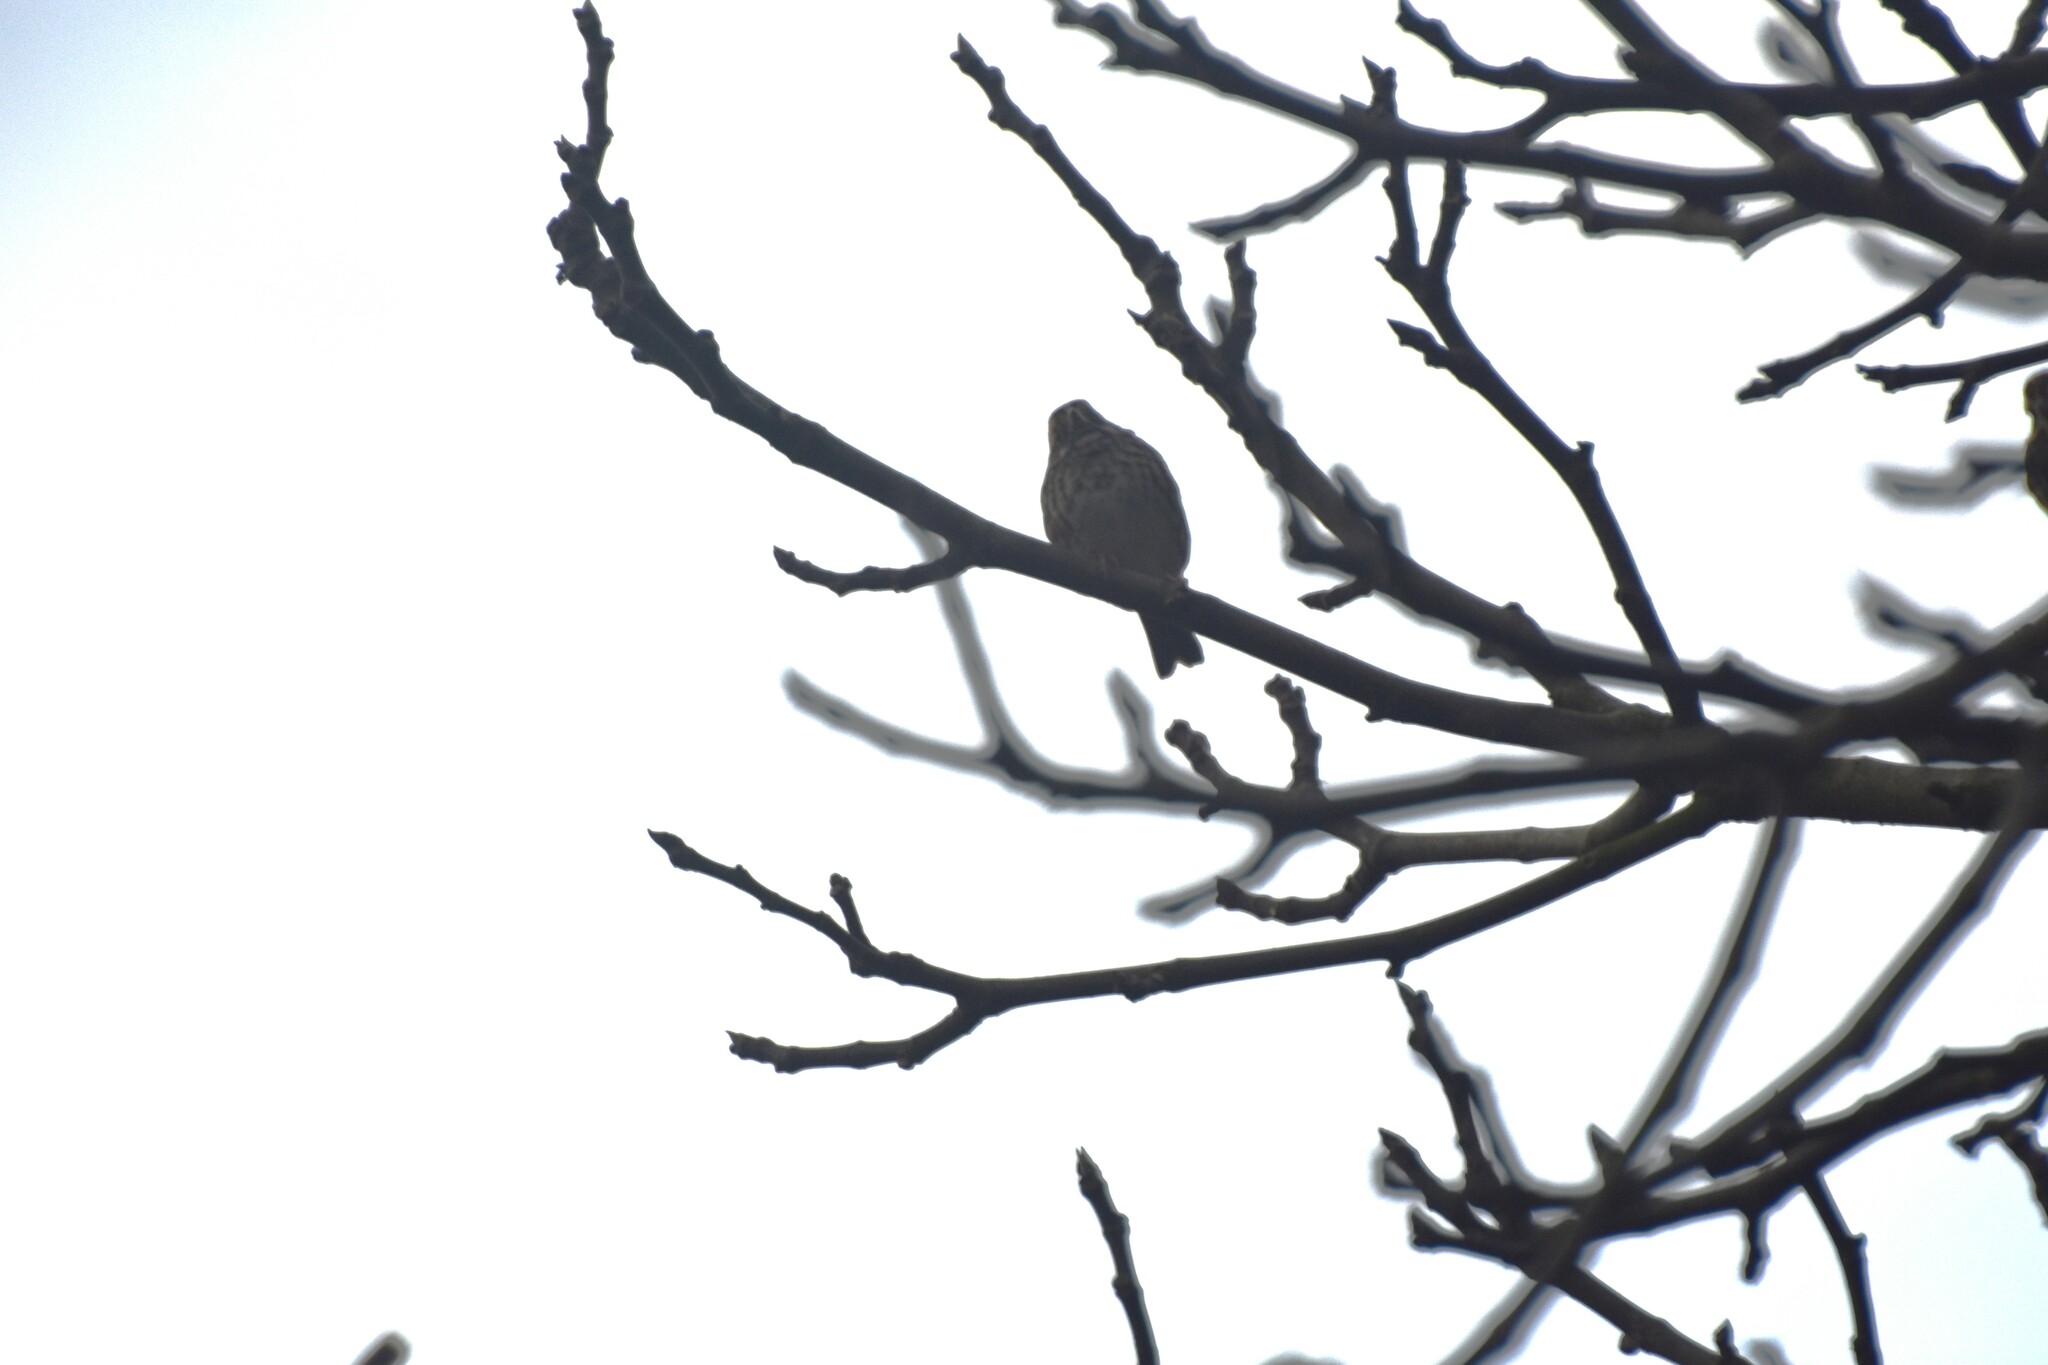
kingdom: Animalia
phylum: Chordata
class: Aves
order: Passeriformes
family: Passerellidae
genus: Zonotrichia
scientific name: Zonotrichia albicollis
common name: White-throated sparrow
